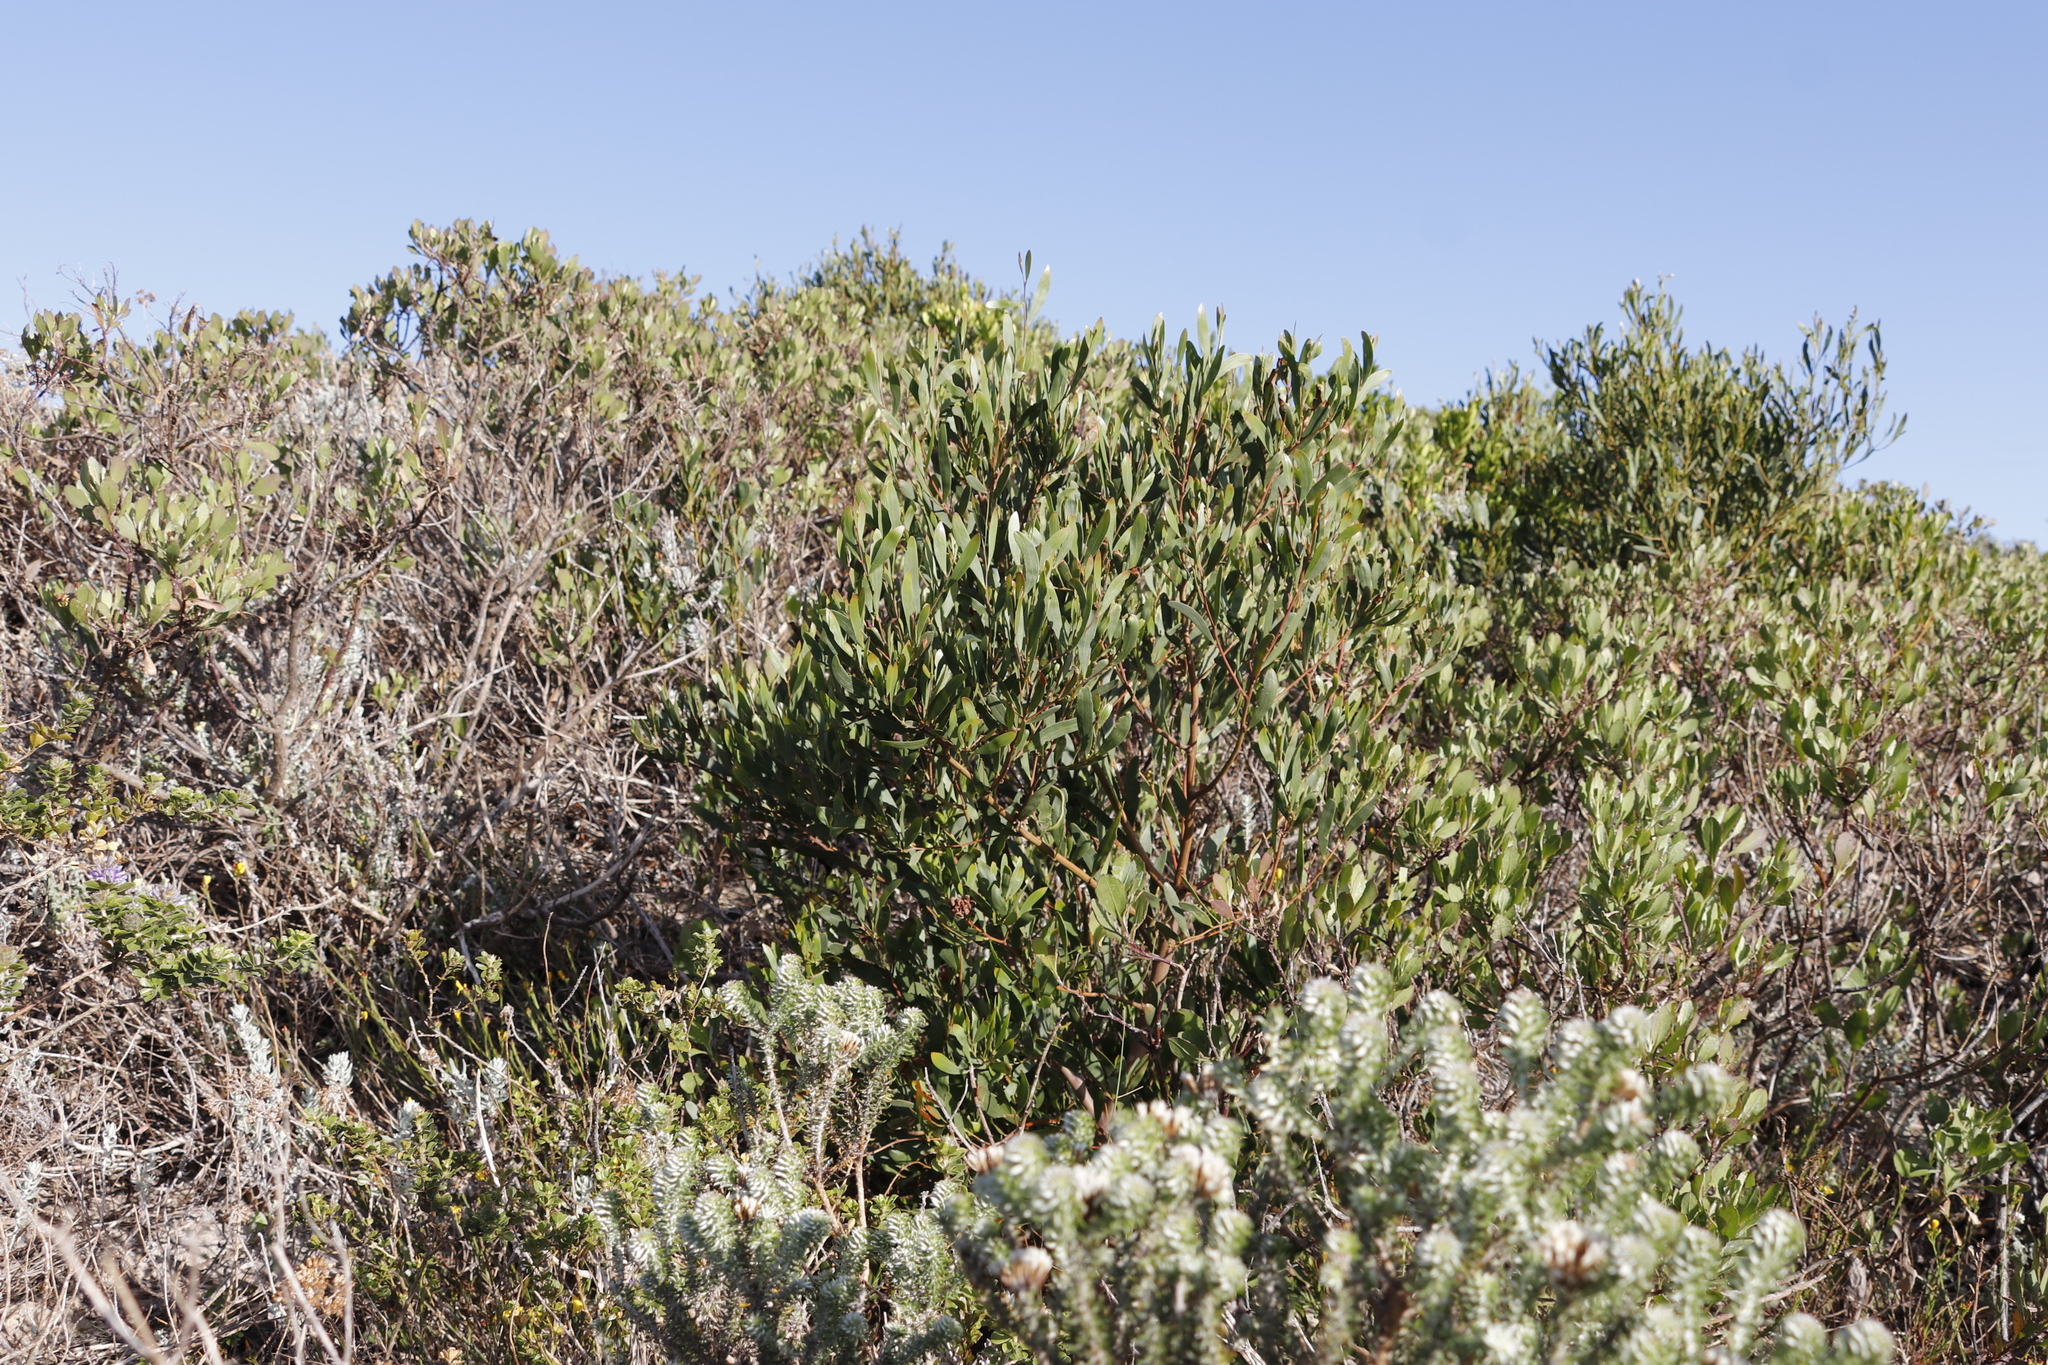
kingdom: Plantae
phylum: Tracheophyta
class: Magnoliopsida
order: Fabales
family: Fabaceae
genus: Acacia
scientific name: Acacia cyclops
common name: Coastal wattle
